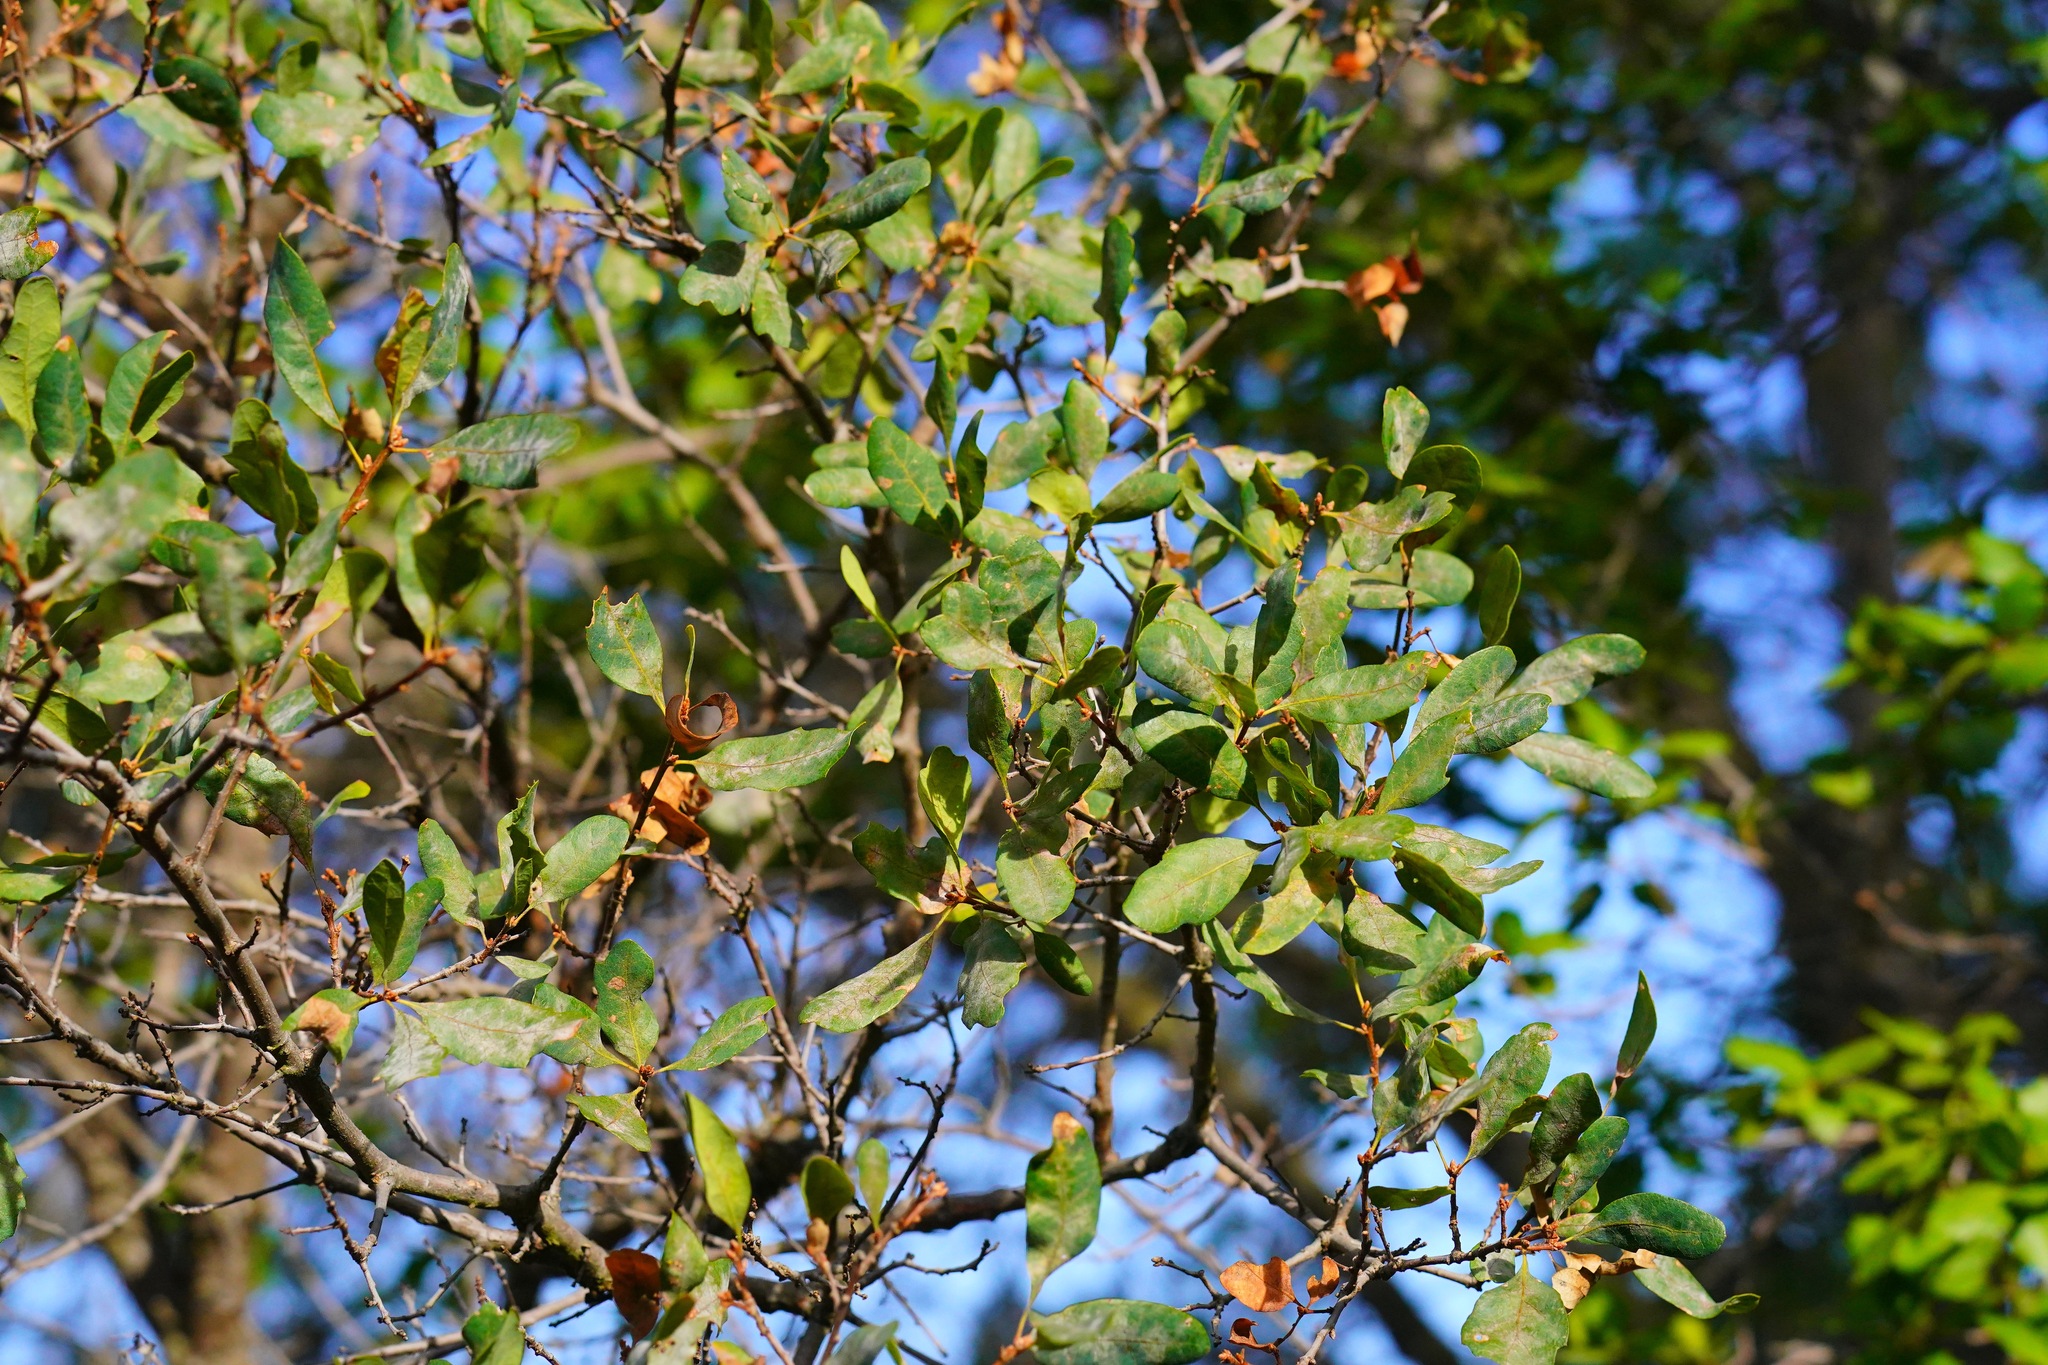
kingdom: Plantae
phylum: Tracheophyta
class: Magnoliopsida
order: Fagales
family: Fagaceae
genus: Quercus
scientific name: Quercus douglasii
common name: Blue oak
